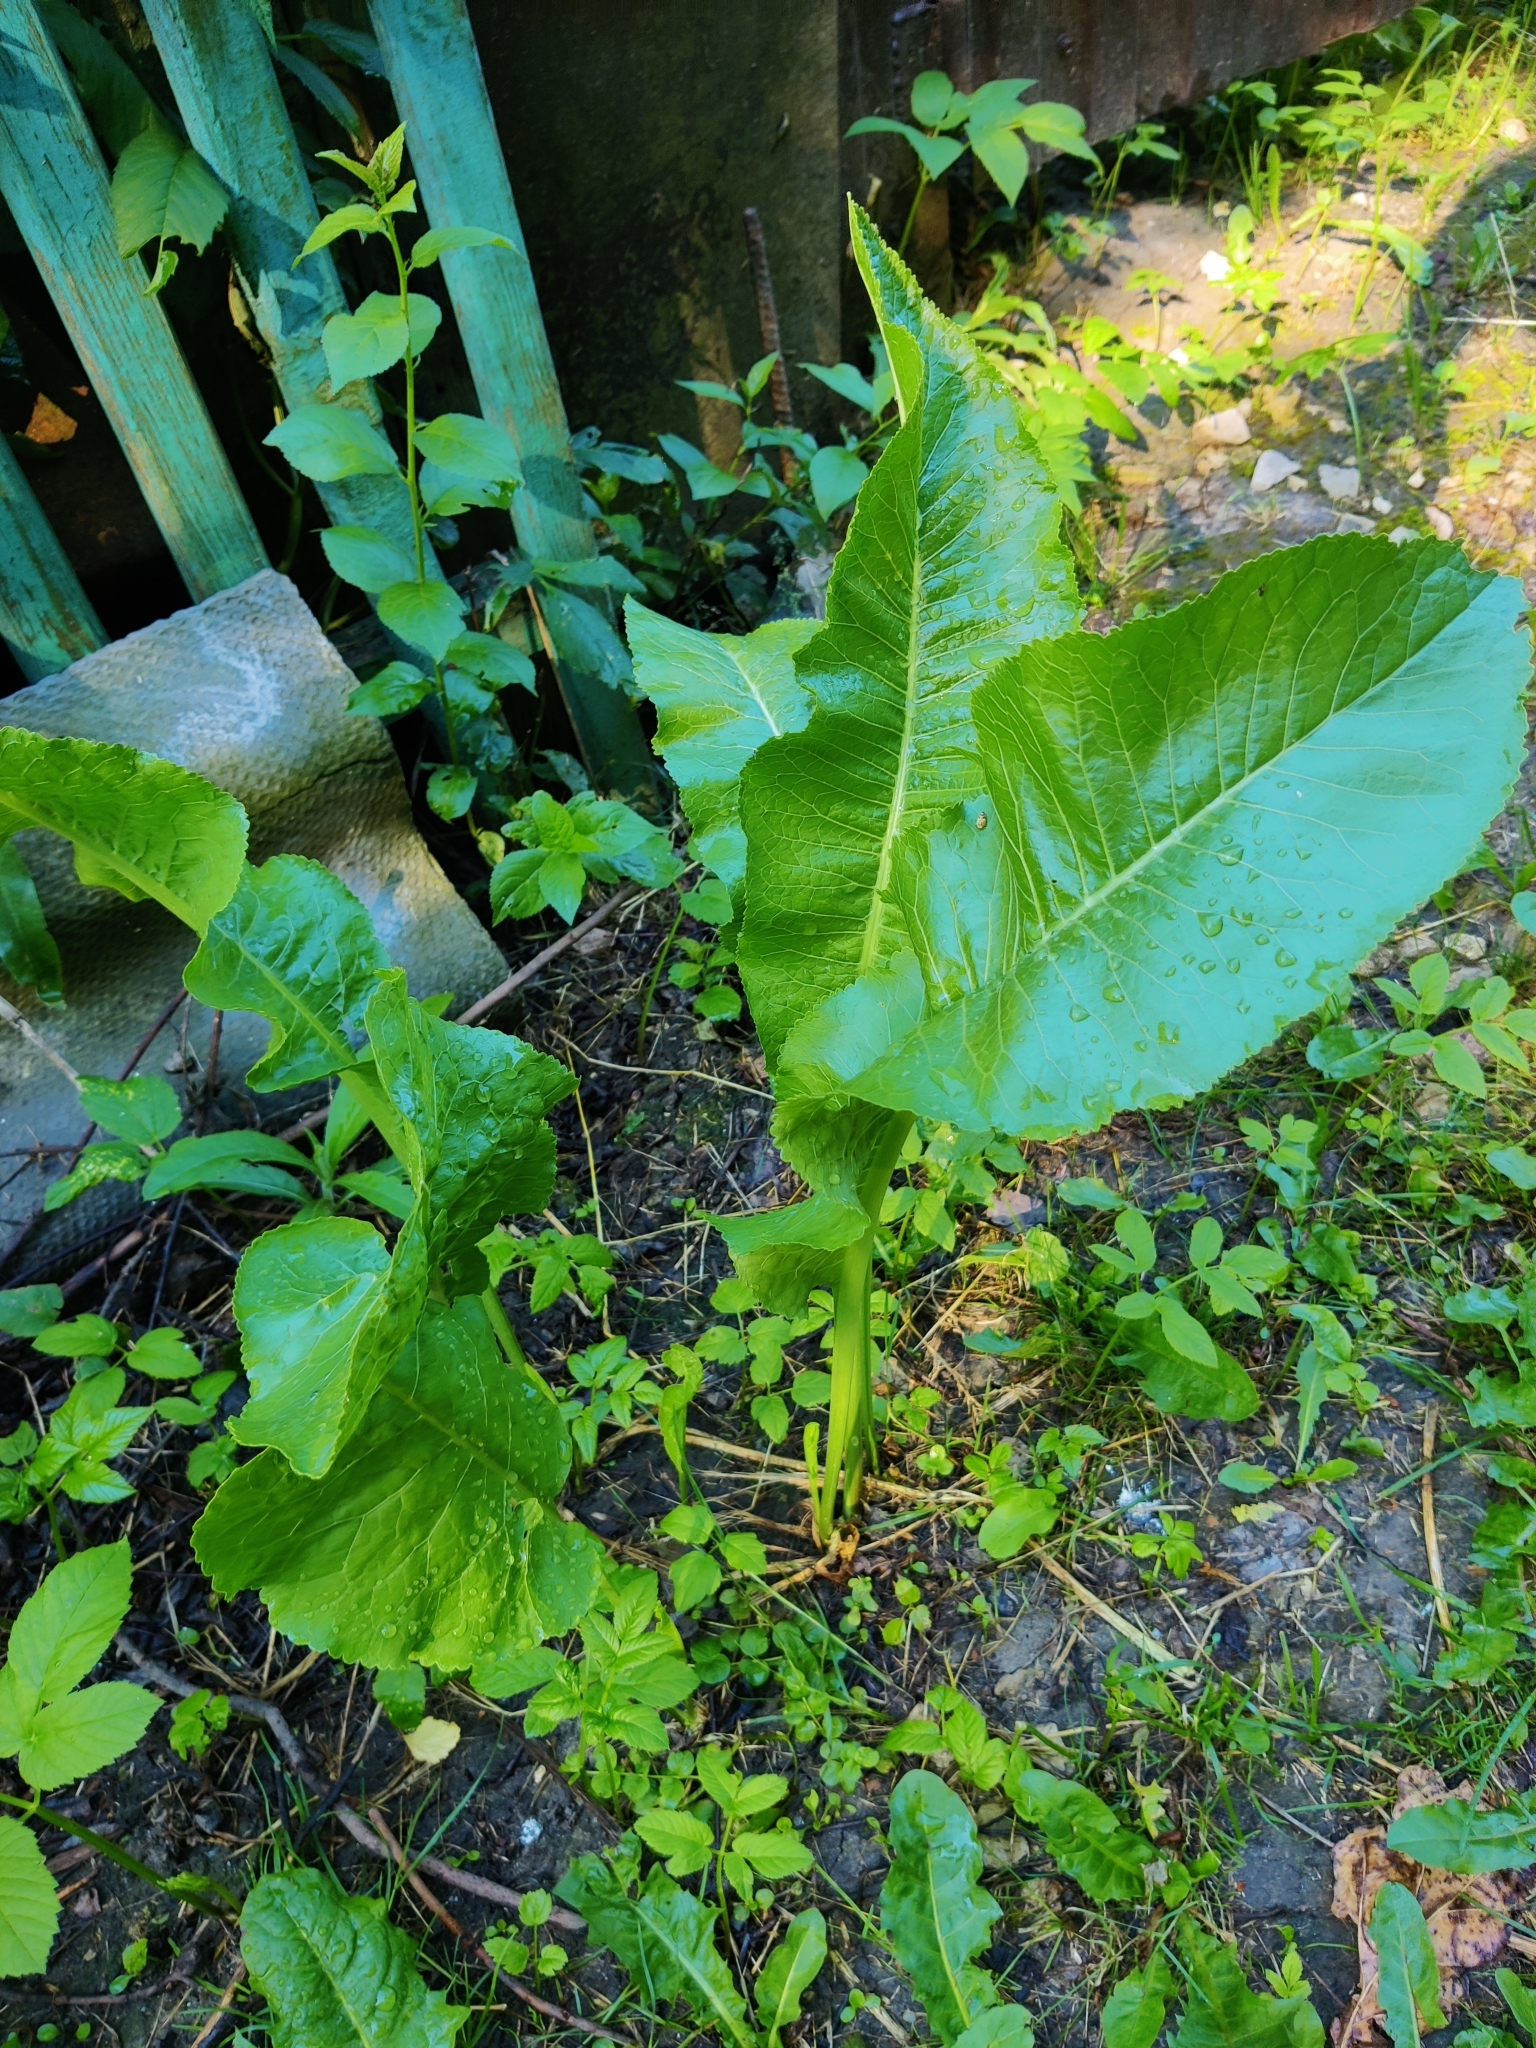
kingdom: Plantae
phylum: Tracheophyta
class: Magnoliopsida
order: Brassicales
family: Brassicaceae
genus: Armoracia
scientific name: Armoracia rusticana
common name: Horseradish
